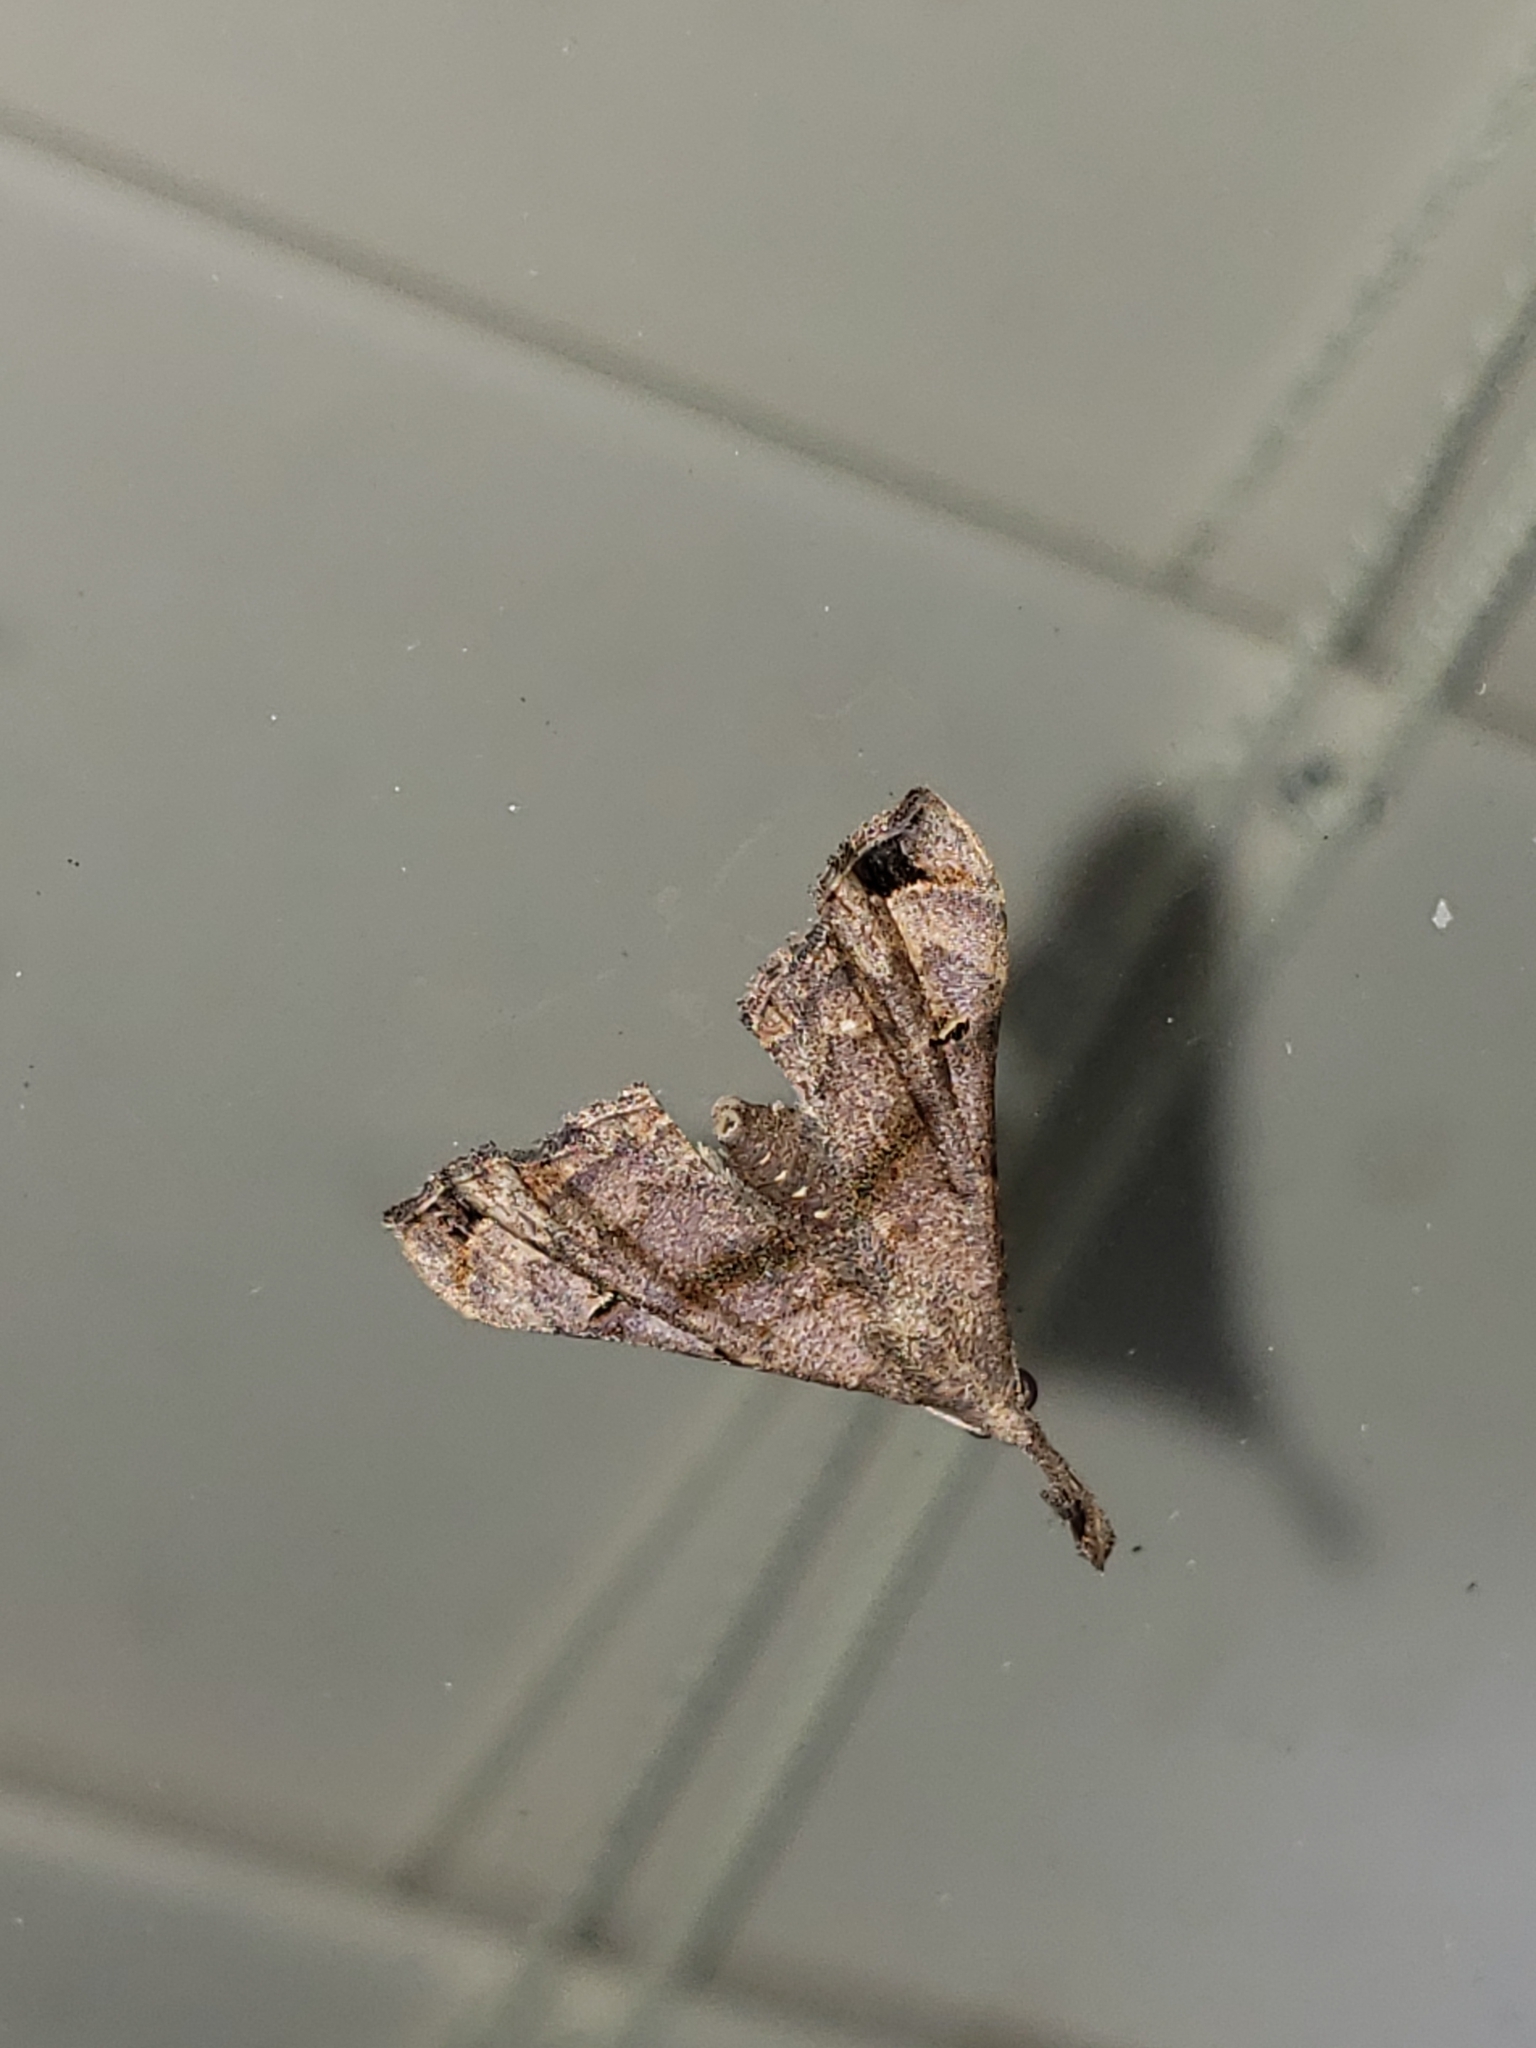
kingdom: Animalia
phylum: Arthropoda
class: Insecta
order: Lepidoptera
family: Erebidae
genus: Palthis
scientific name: Palthis asopialis
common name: Faint-spotted palthis moth
